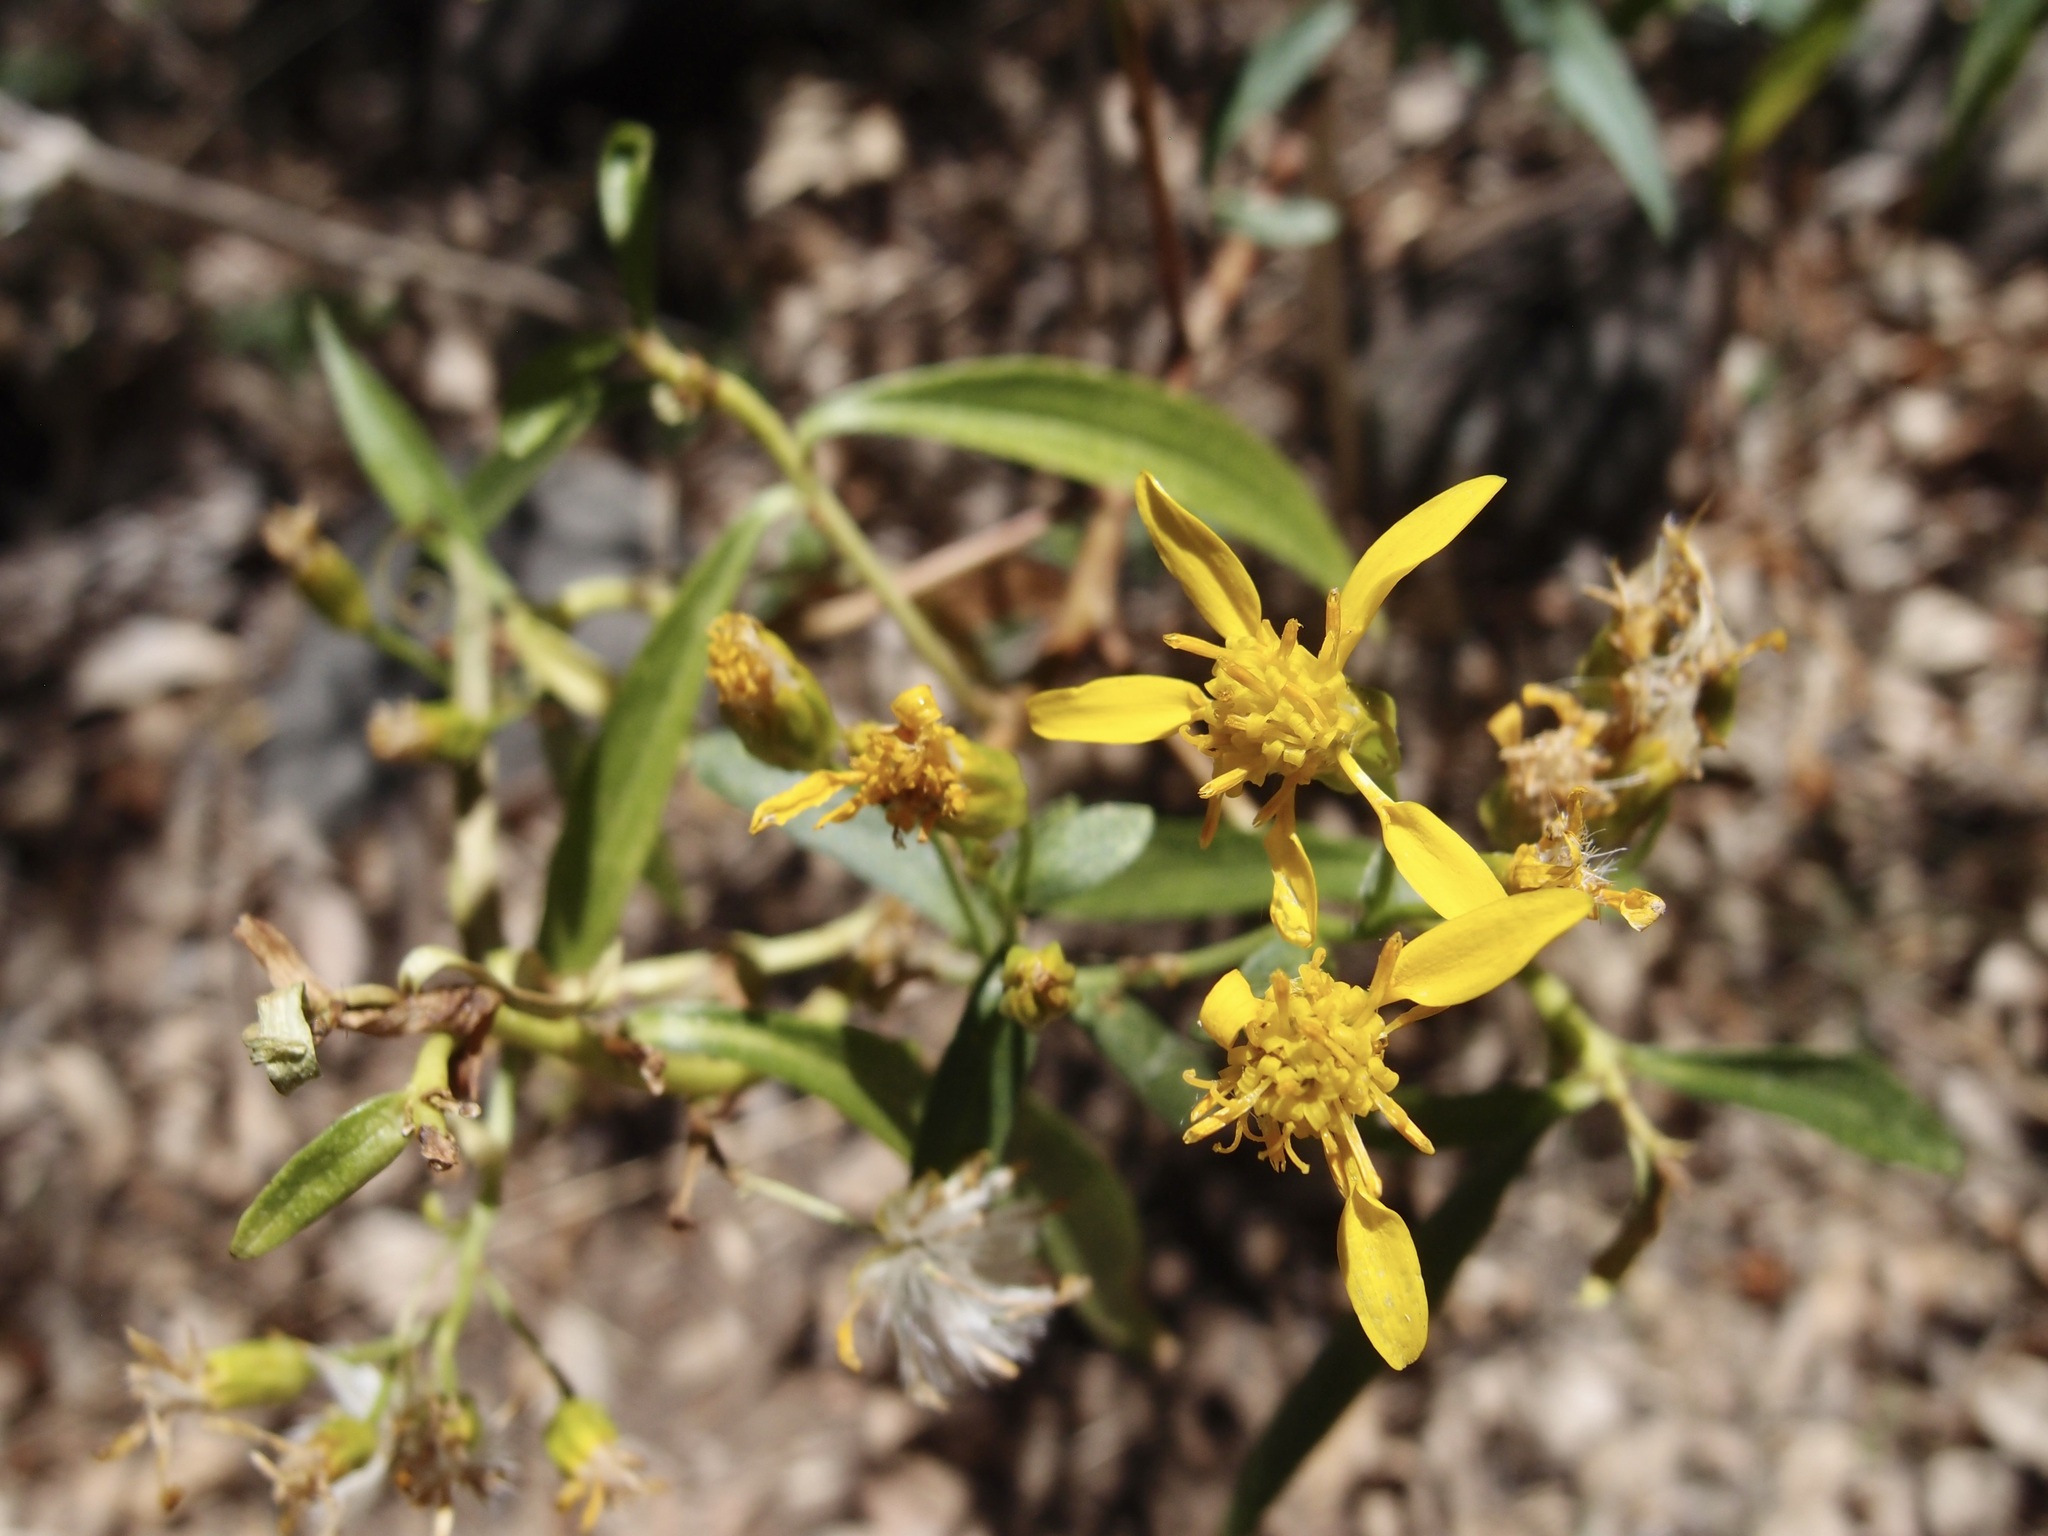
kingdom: Plantae
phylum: Tracheophyta
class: Magnoliopsida
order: Asterales
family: Asteraceae
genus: Barkleyanthus
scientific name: Barkleyanthus salicifolius
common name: Willow ragwort
